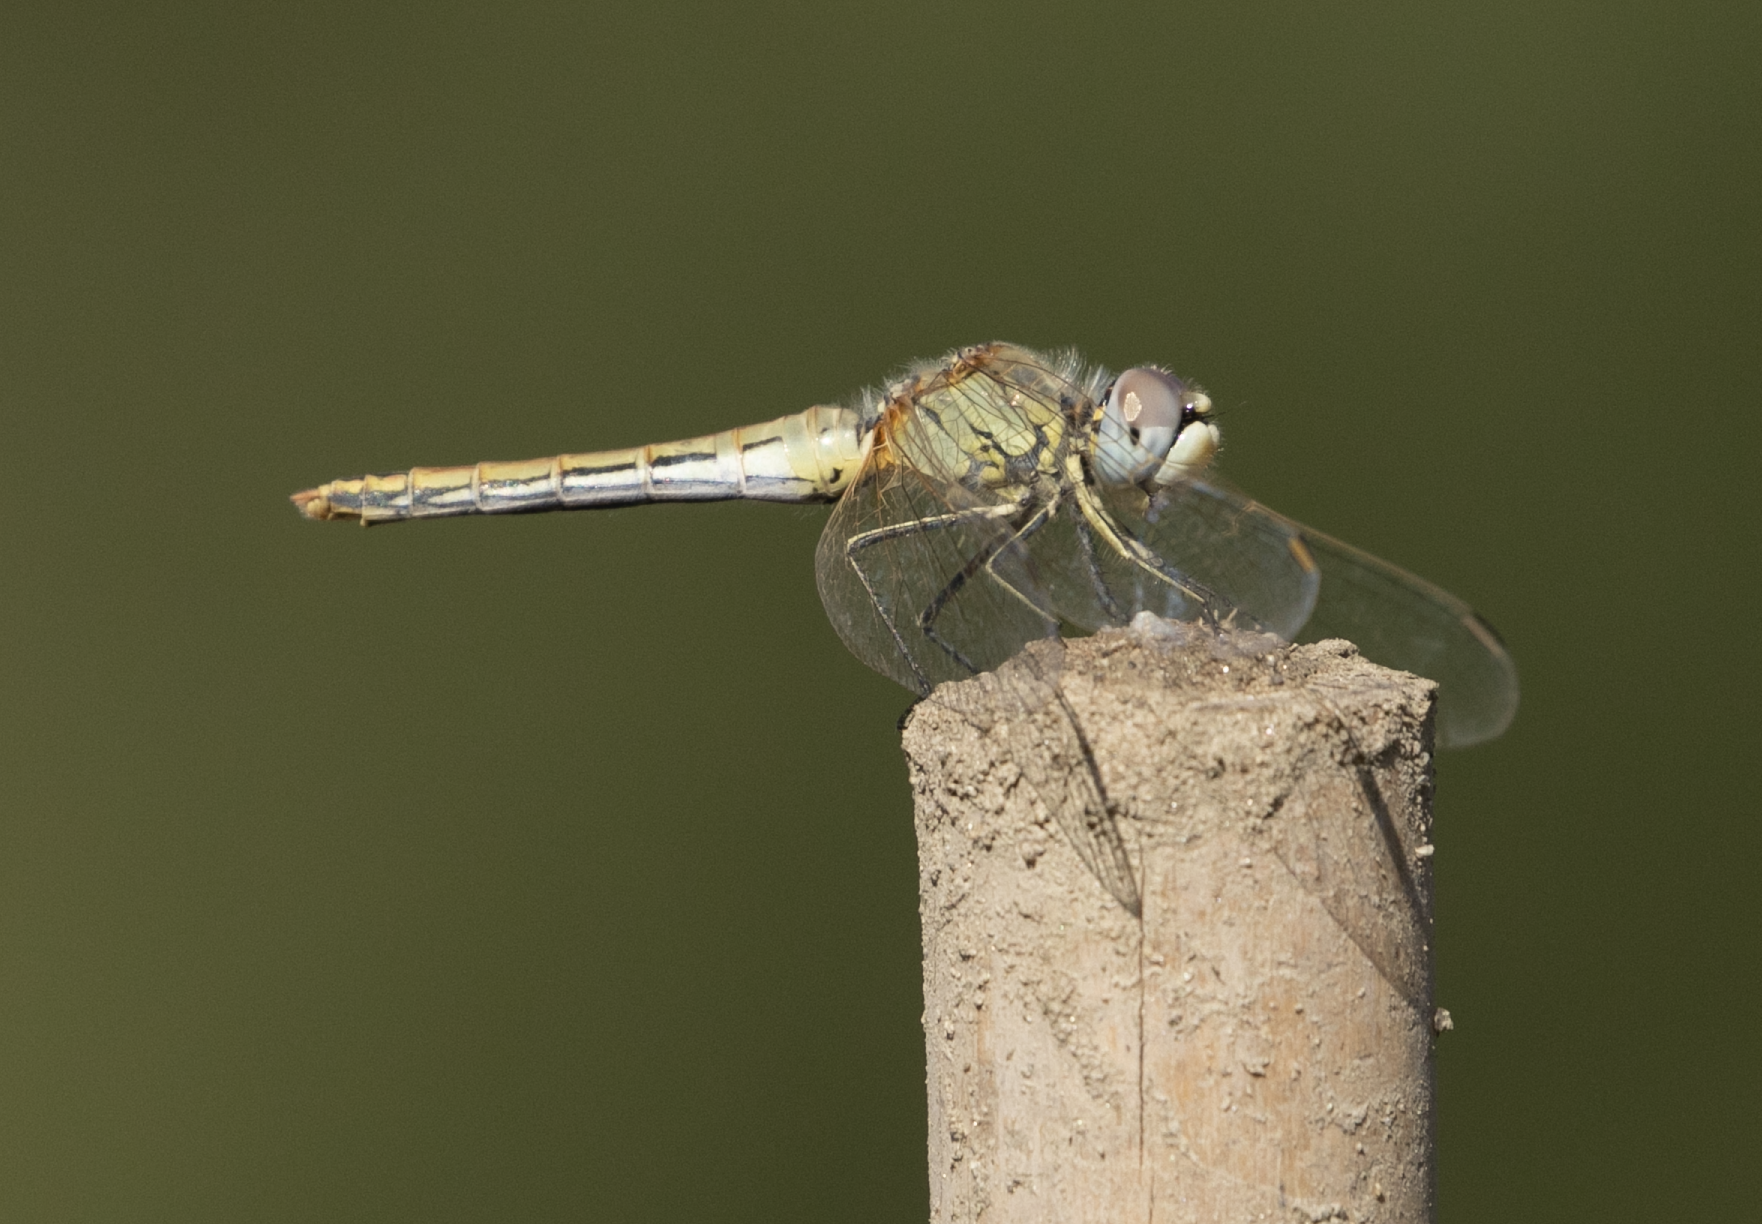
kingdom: Animalia
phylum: Arthropoda
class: Insecta
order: Odonata
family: Libellulidae
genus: Sympetrum
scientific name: Sympetrum fonscolombii
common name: Red-veined darter
